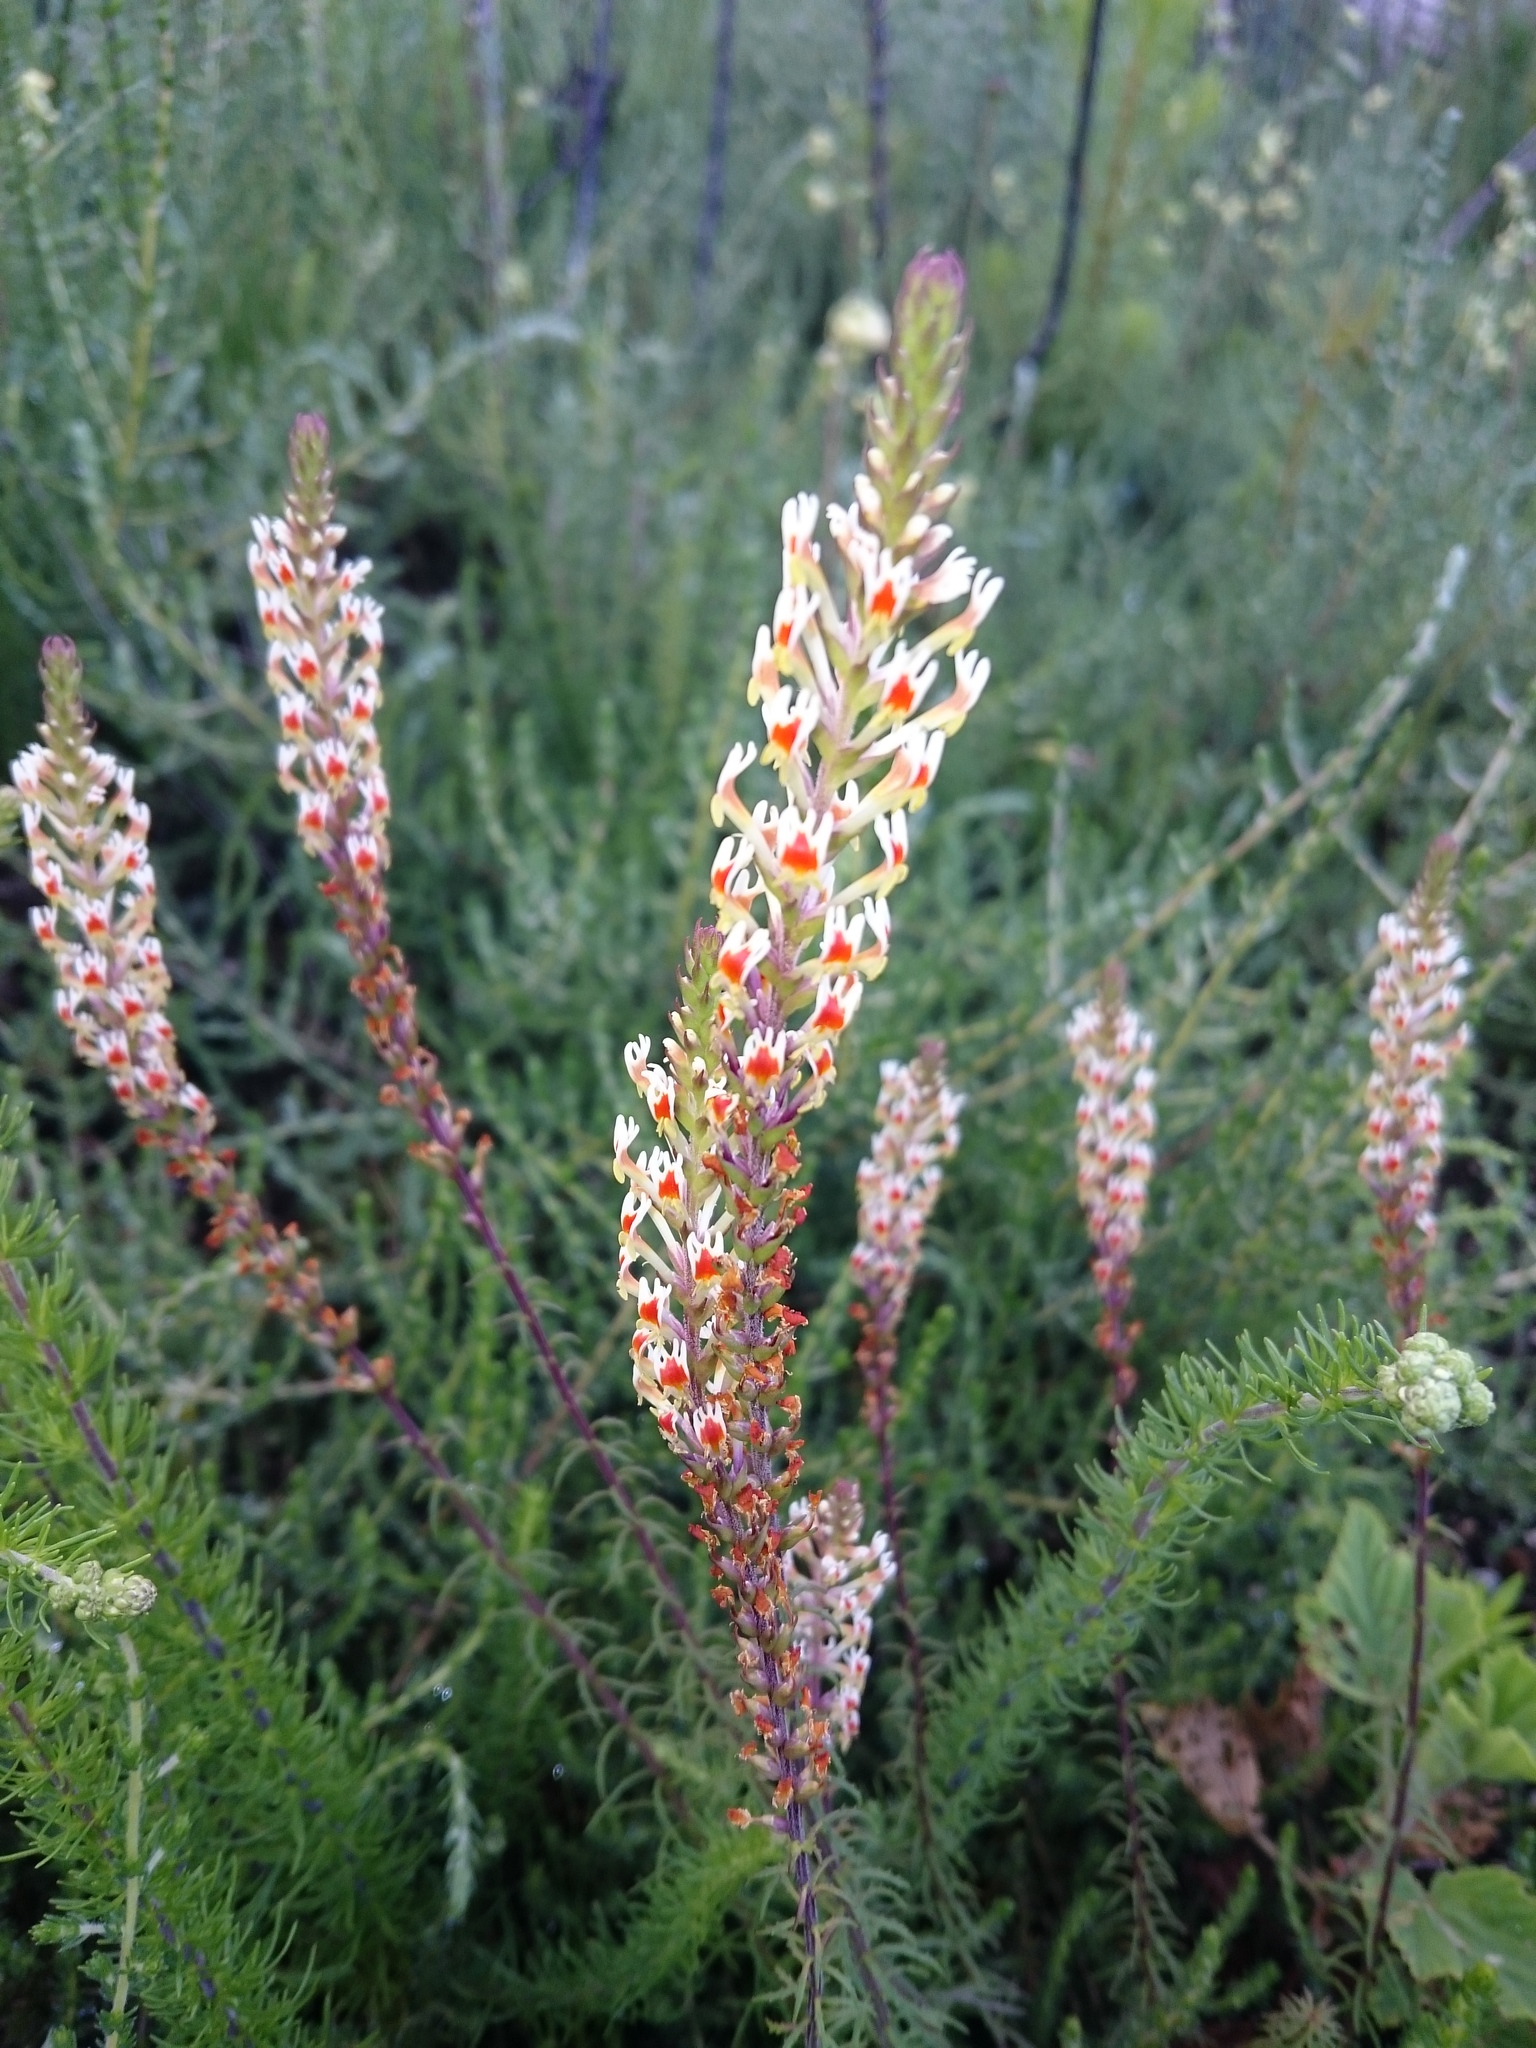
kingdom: Plantae
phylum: Tracheophyta
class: Magnoliopsida
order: Lamiales
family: Scrophulariaceae
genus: Hebenstretia
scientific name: Hebenstretia paarlensis
